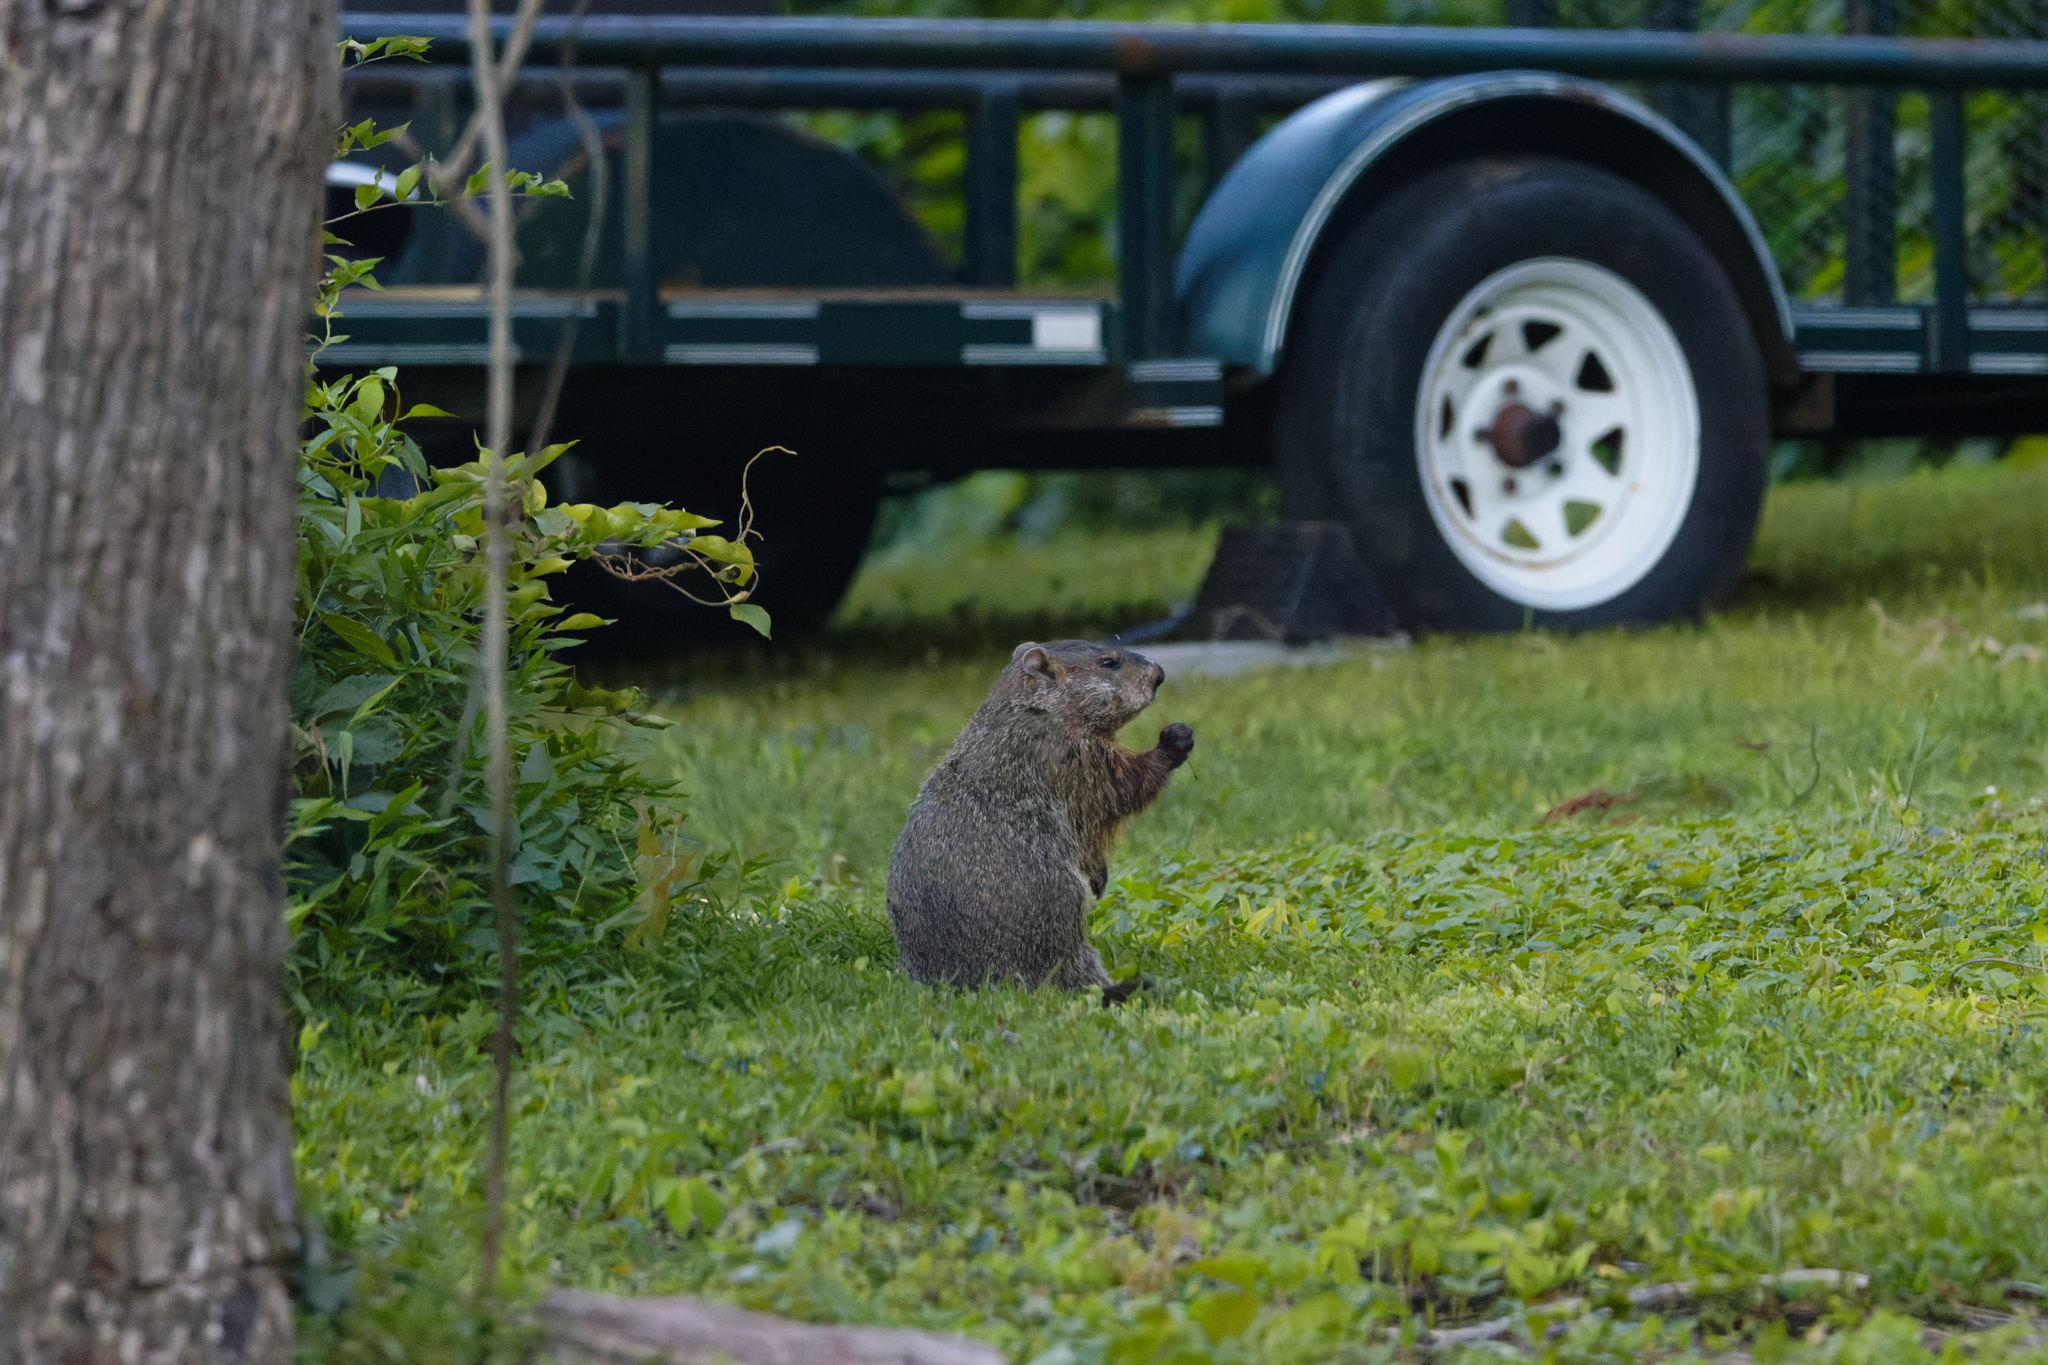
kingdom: Animalia
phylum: Chordata
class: Mammalia
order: Rodentia
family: Sciuridae
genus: Marmota
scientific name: Marmota monax
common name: Groundhog
